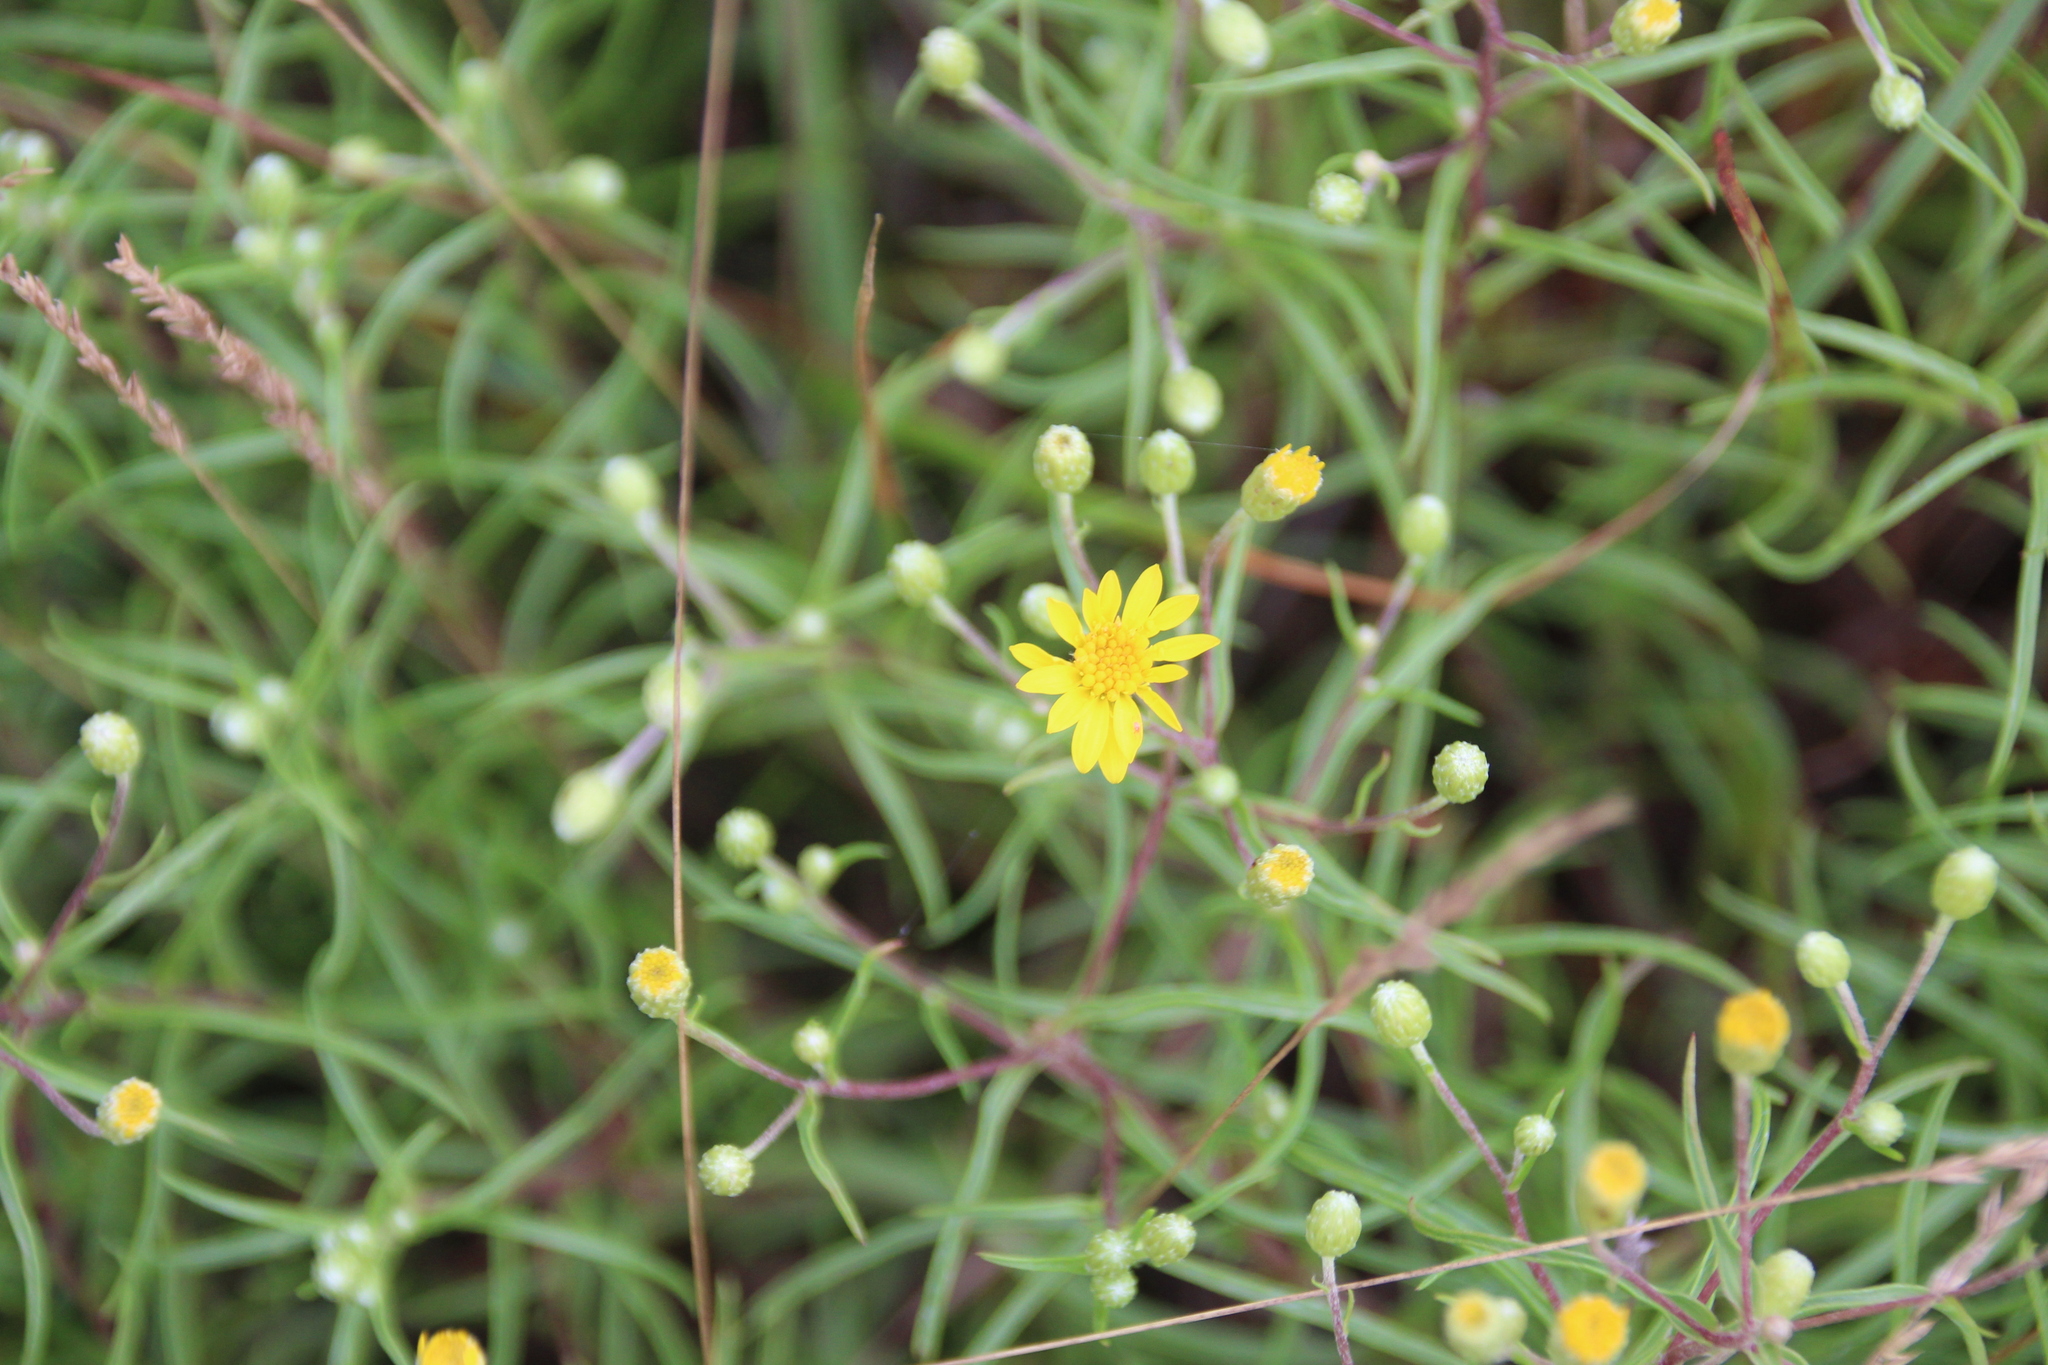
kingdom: Plantae
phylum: Tracheophyta
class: Magnoliopsida
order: Asterales
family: Asteraceae
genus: Pityopsis
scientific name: Pityopsis falcata
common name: Sickle-leaved goldenaster
